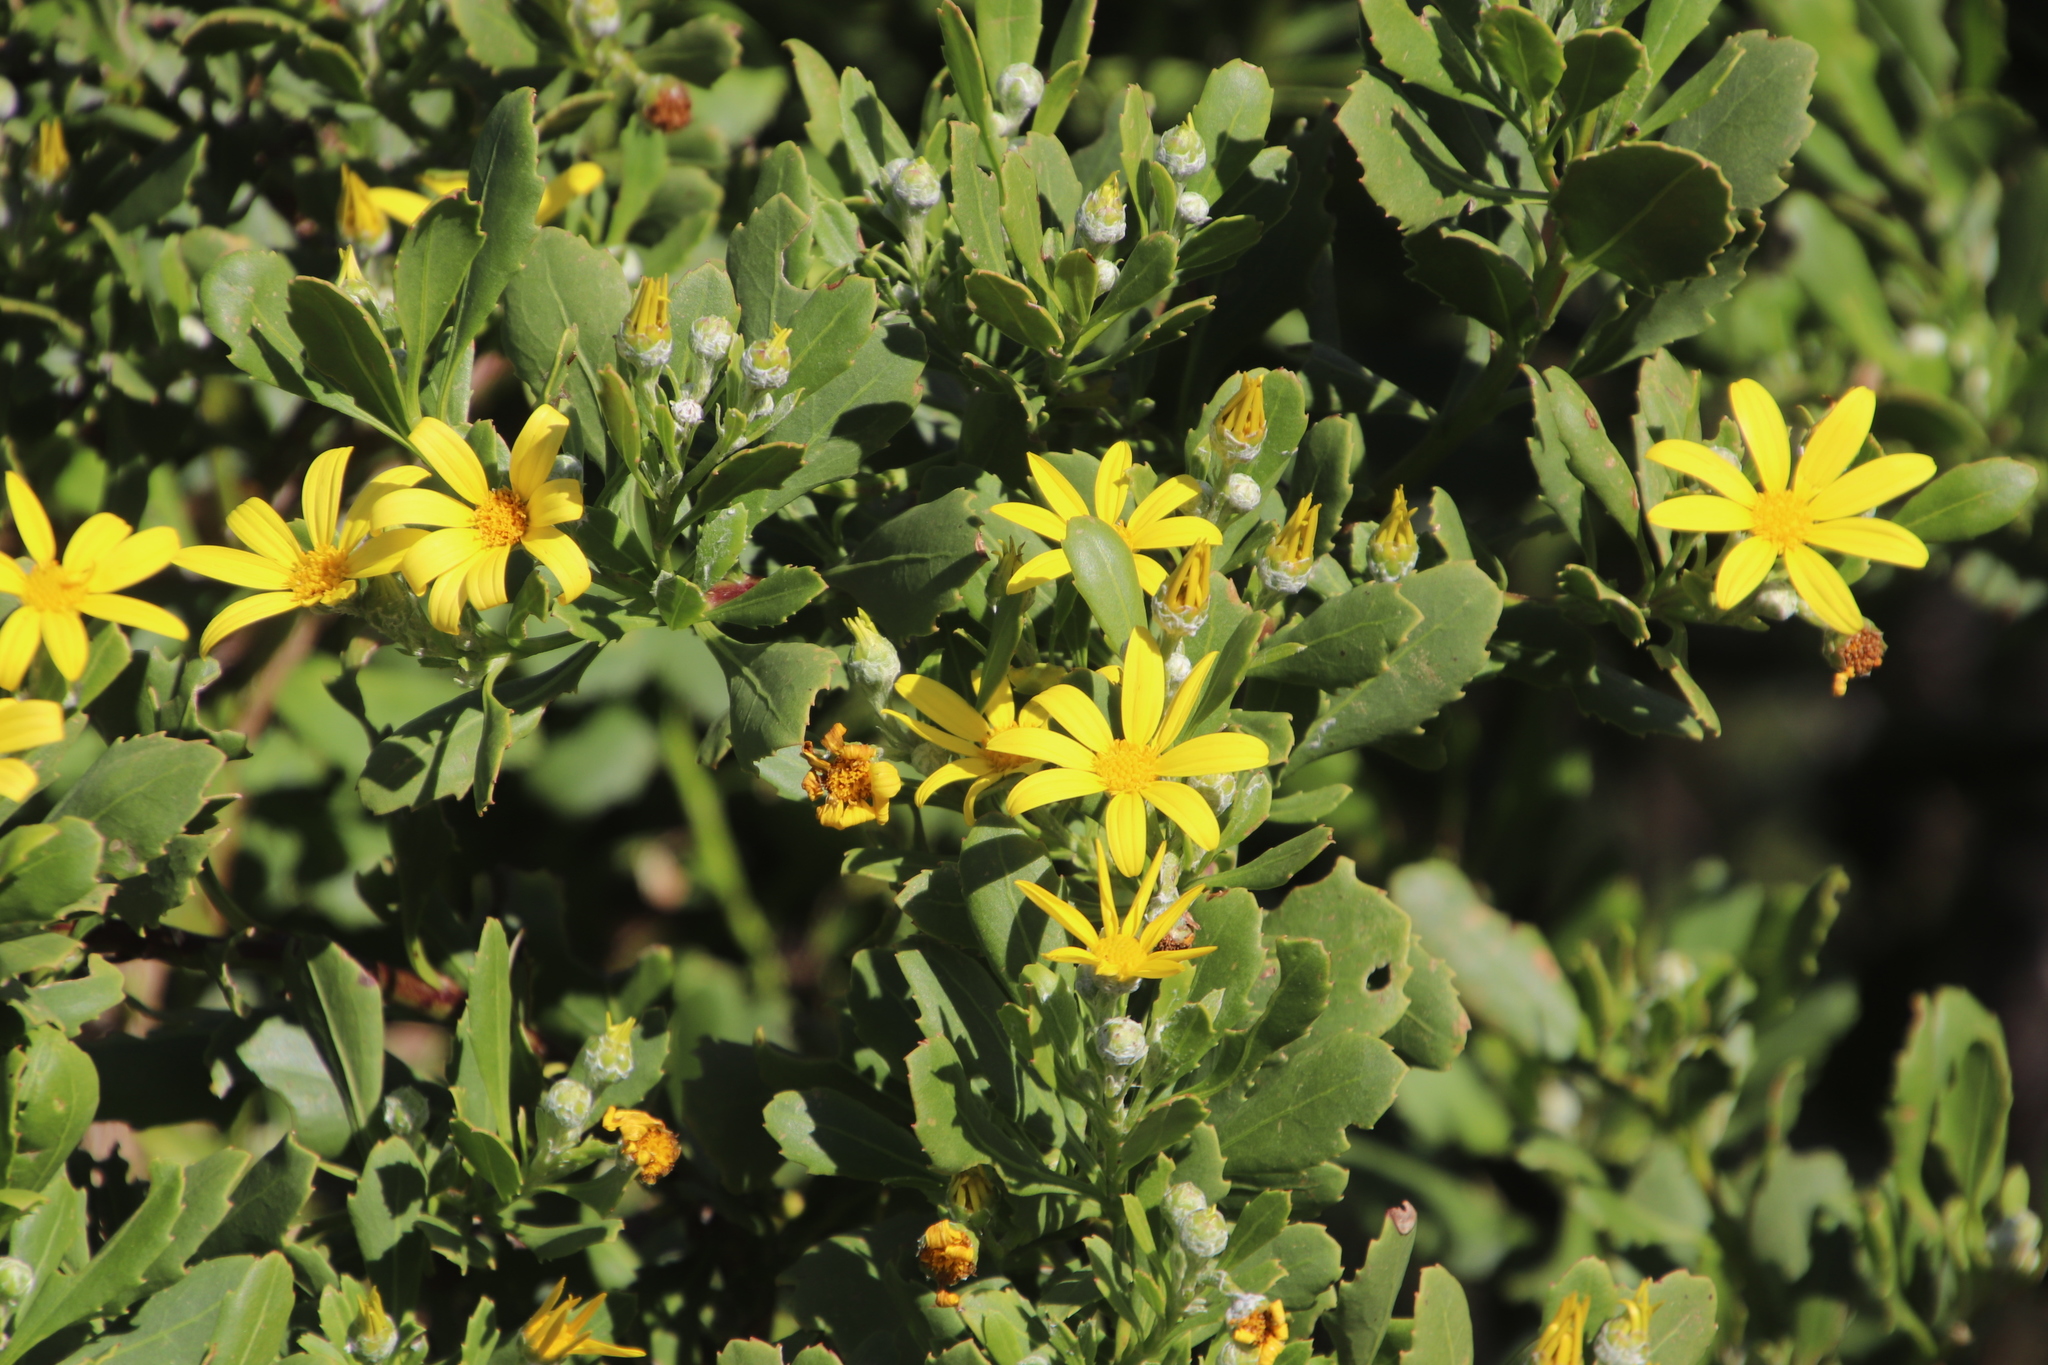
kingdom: Plantae
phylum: Tracheophyta
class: Magnoliopsida
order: Asterales
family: Asteraceae
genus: Osteospermum
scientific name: Osteospermum moniliferum
